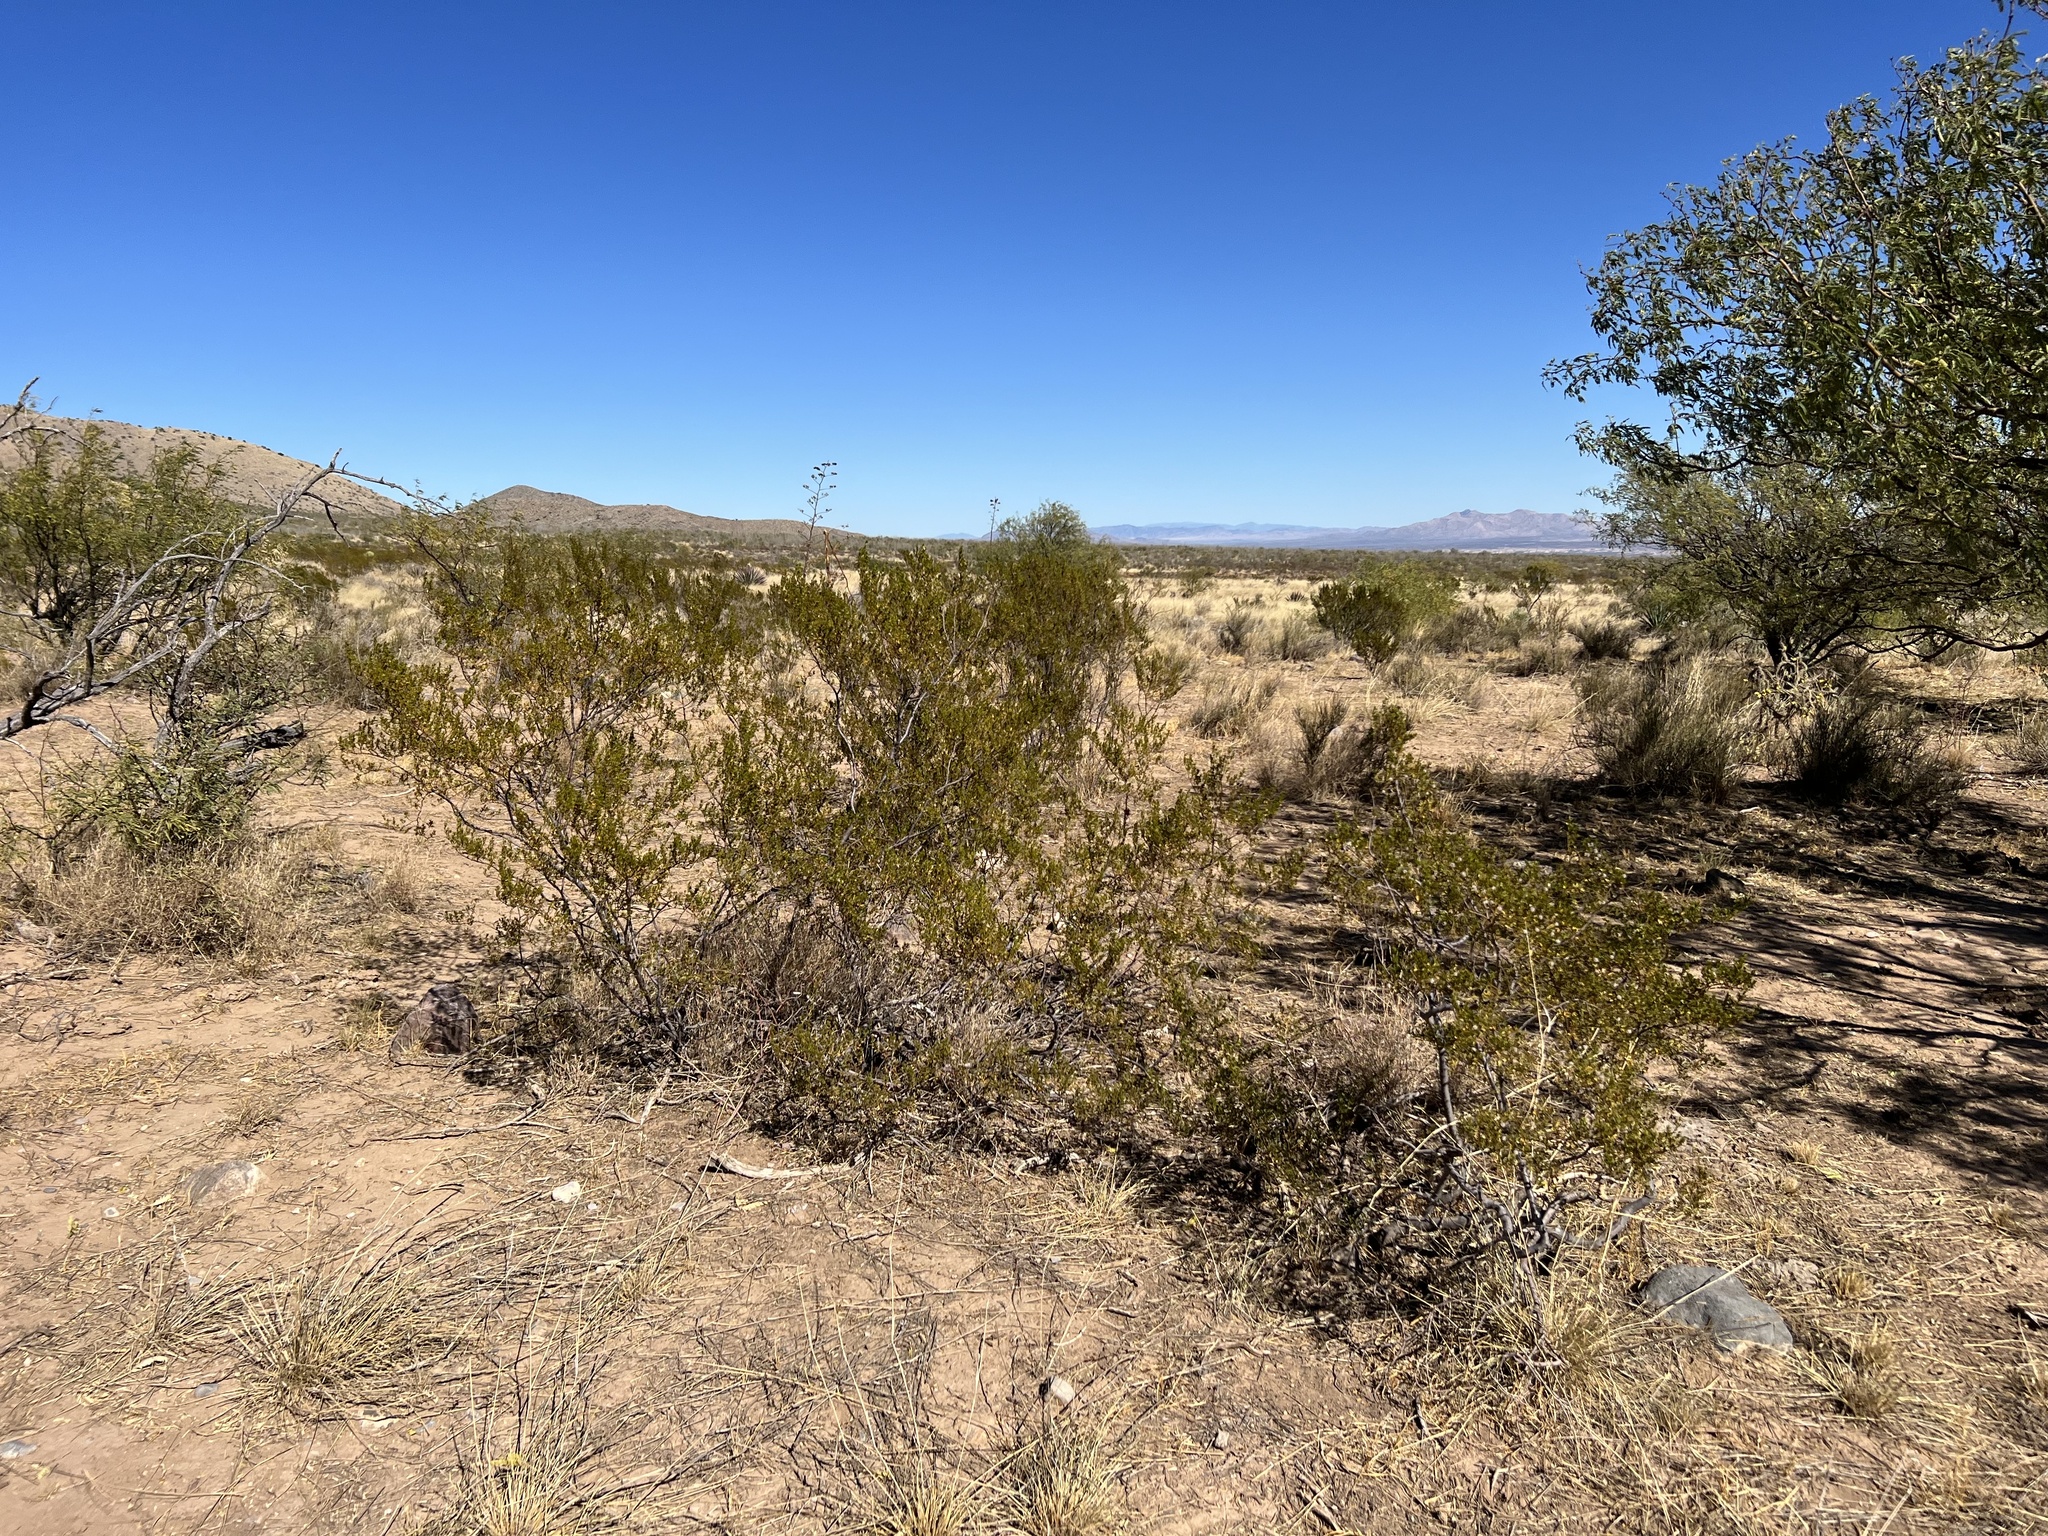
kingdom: Plantae
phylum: Tracheophyta
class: Magnoliopsida
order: Zygophyllales
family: Zygophyllaceae
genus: Larrea
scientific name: Larrea tridentata
